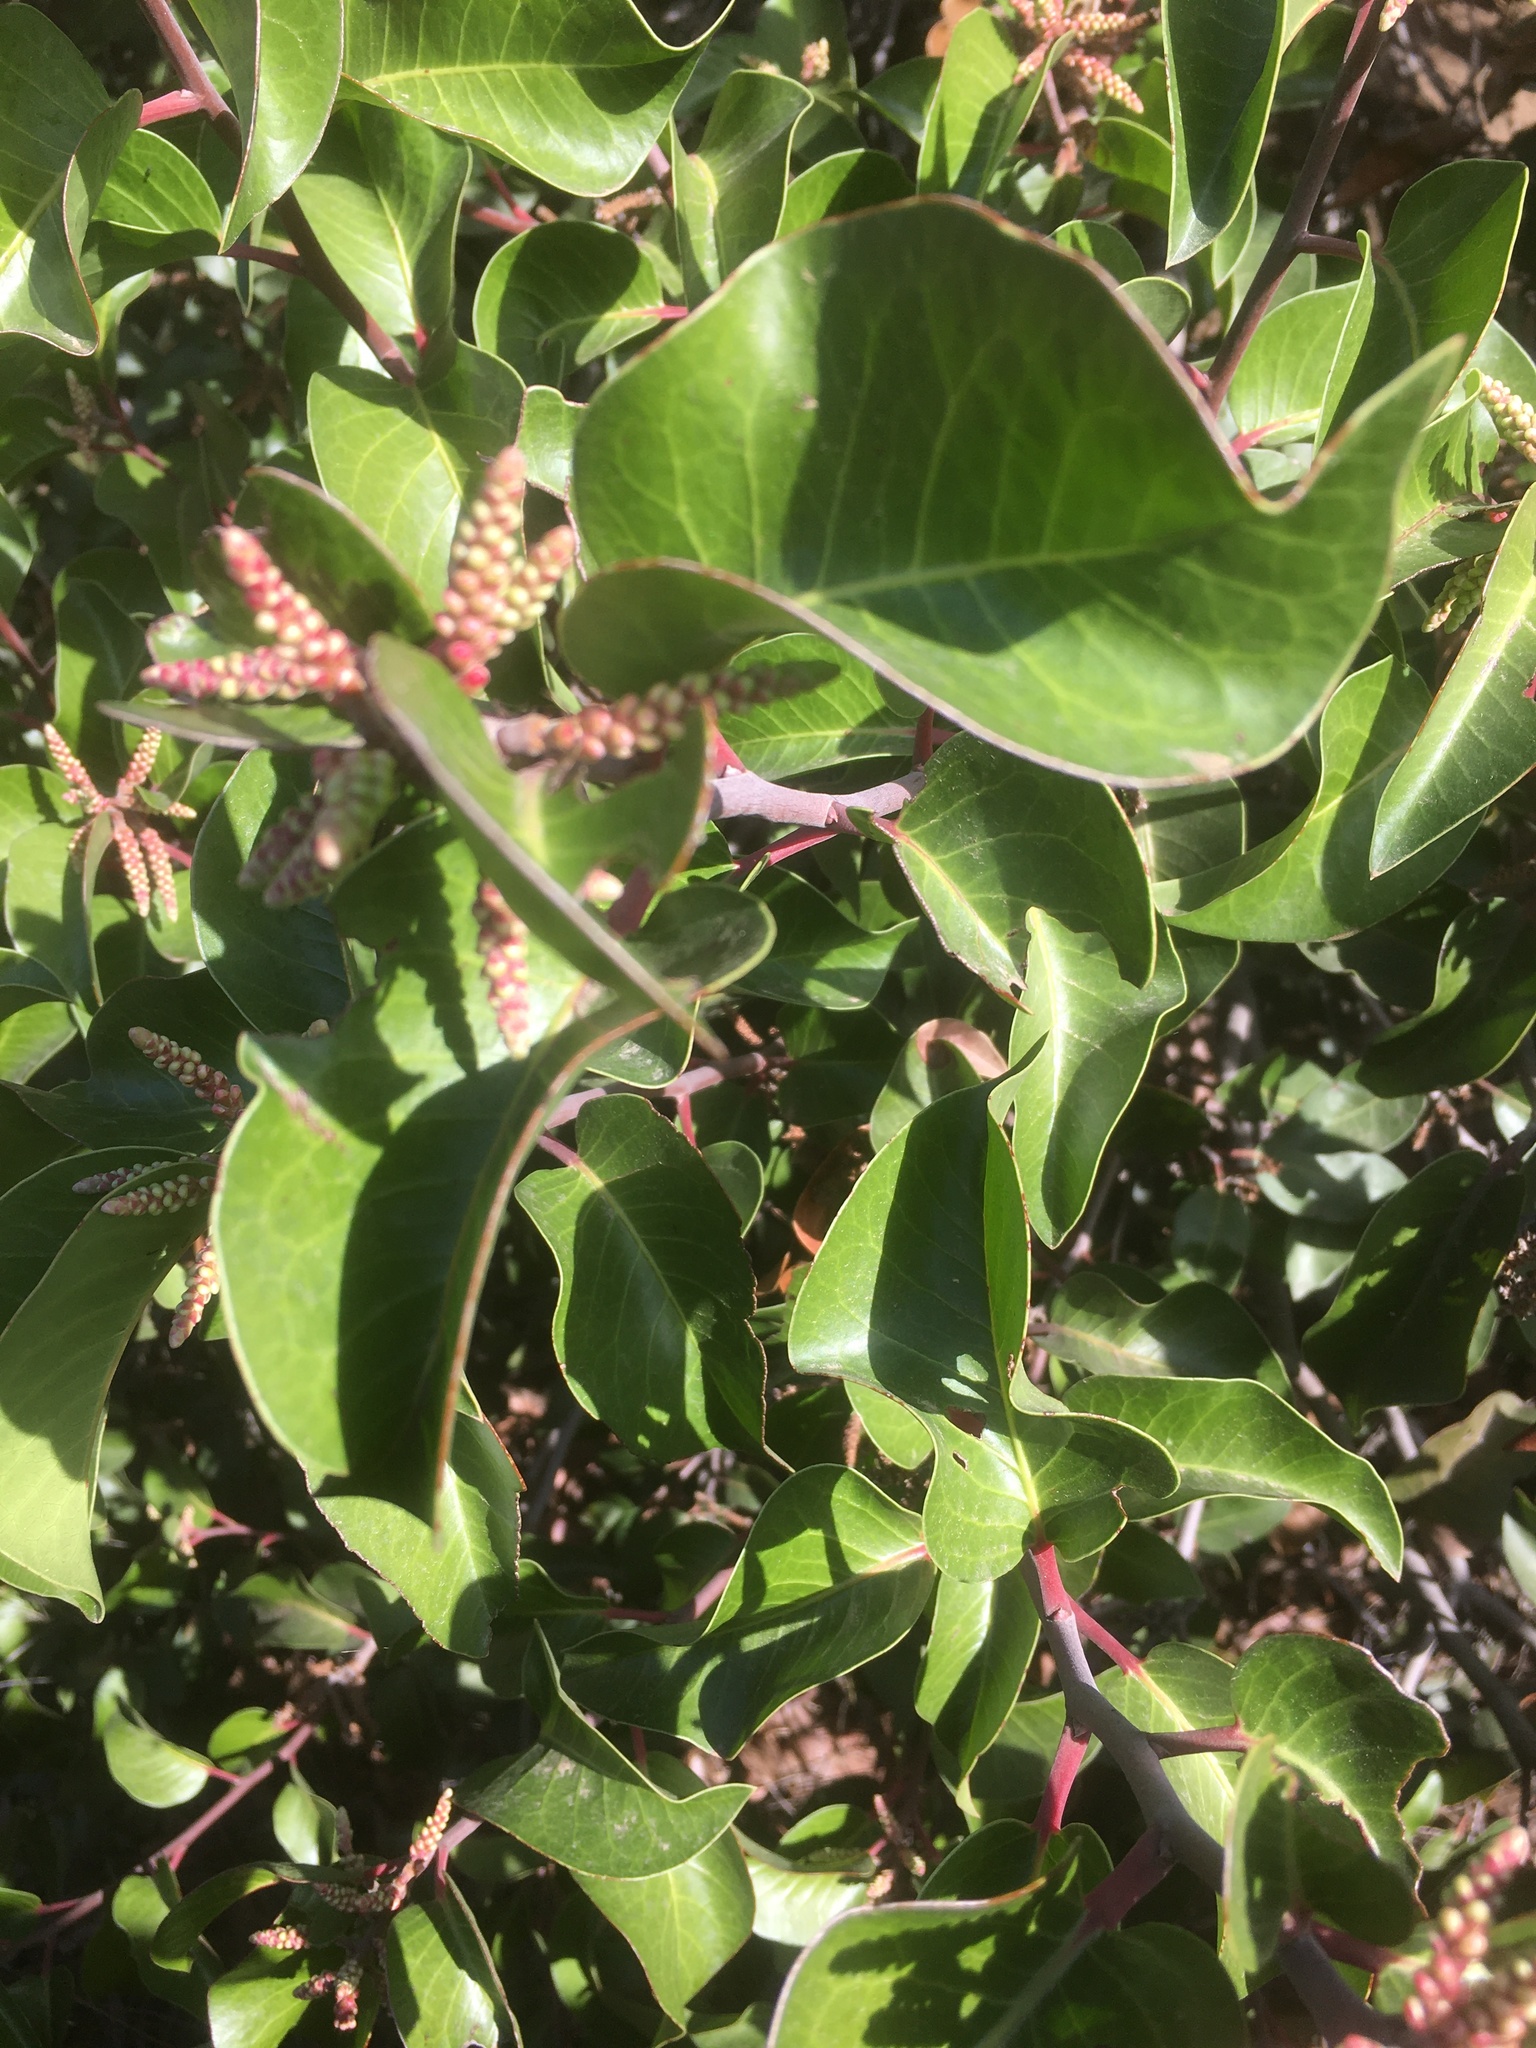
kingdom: Plantae
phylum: Tracheophyta
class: Magnoliopsida
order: Sapindales
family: Anacardiaceae
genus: Rhus
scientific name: Rhus ovata
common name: Sugar sumac
